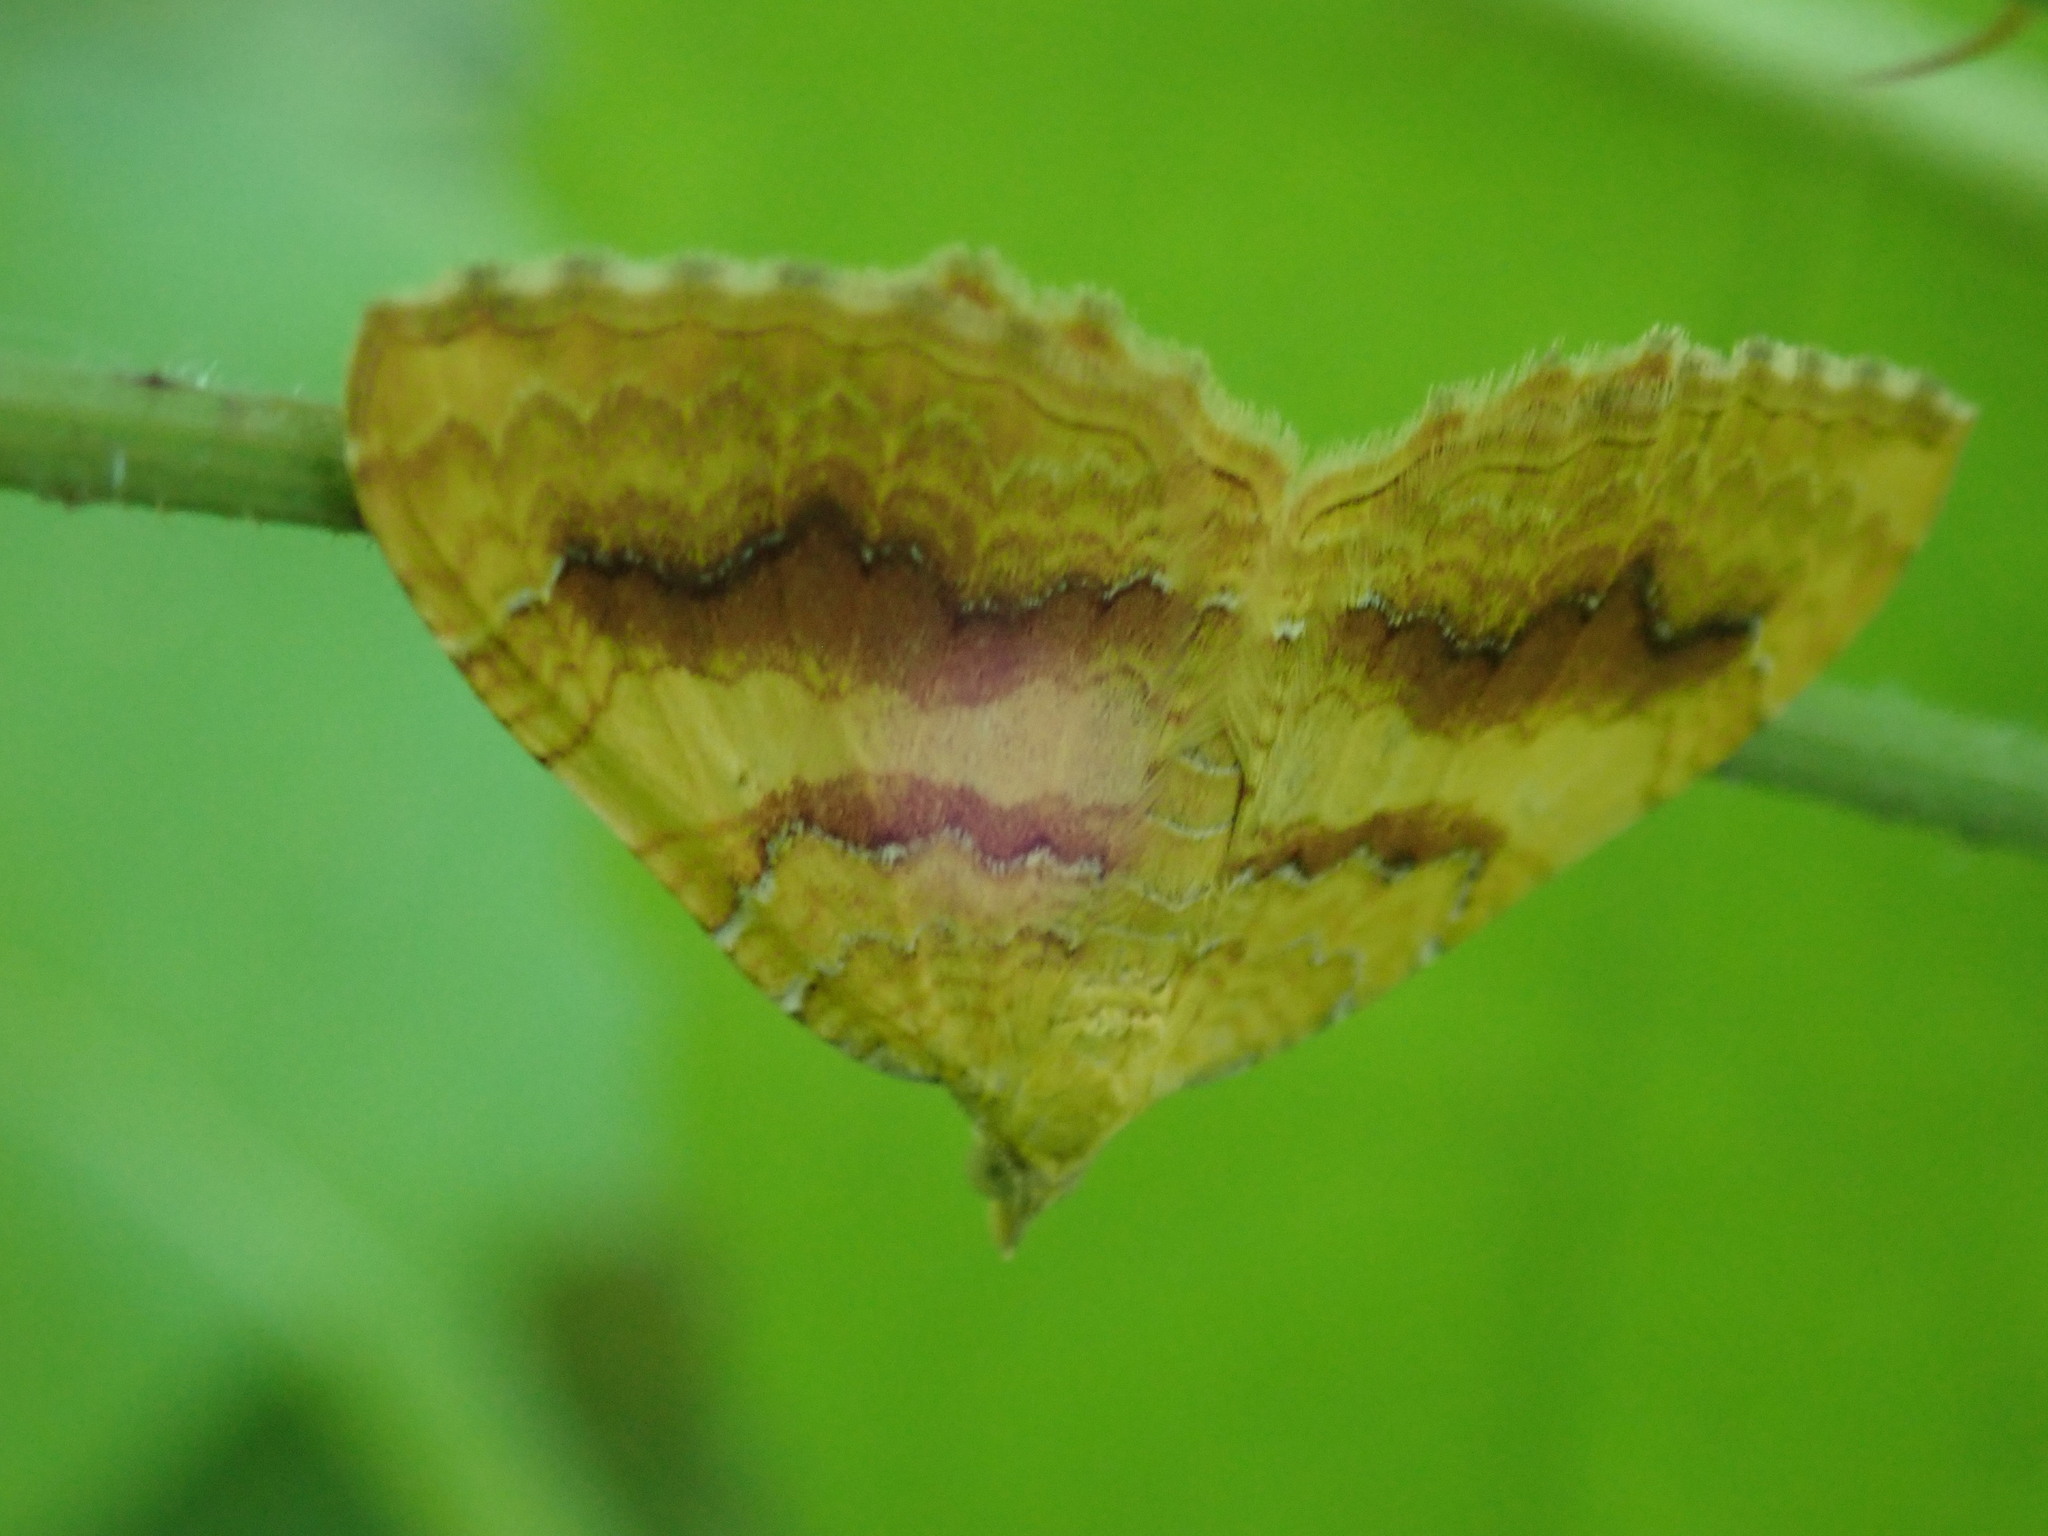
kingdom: Animalia
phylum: Arthropoda
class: Insecta
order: Lepidoptera
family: Geometridae
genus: Camptogramma
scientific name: Camptogramma bilineata
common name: Yellow shell
